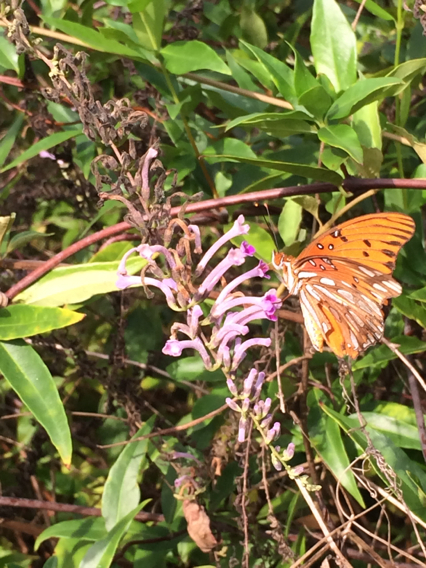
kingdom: Animalia
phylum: Arthropoda
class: Insecta
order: Lepidoptera
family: Nymphalidae
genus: Dione
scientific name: Dione vanillae
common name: Gulf fritillary
